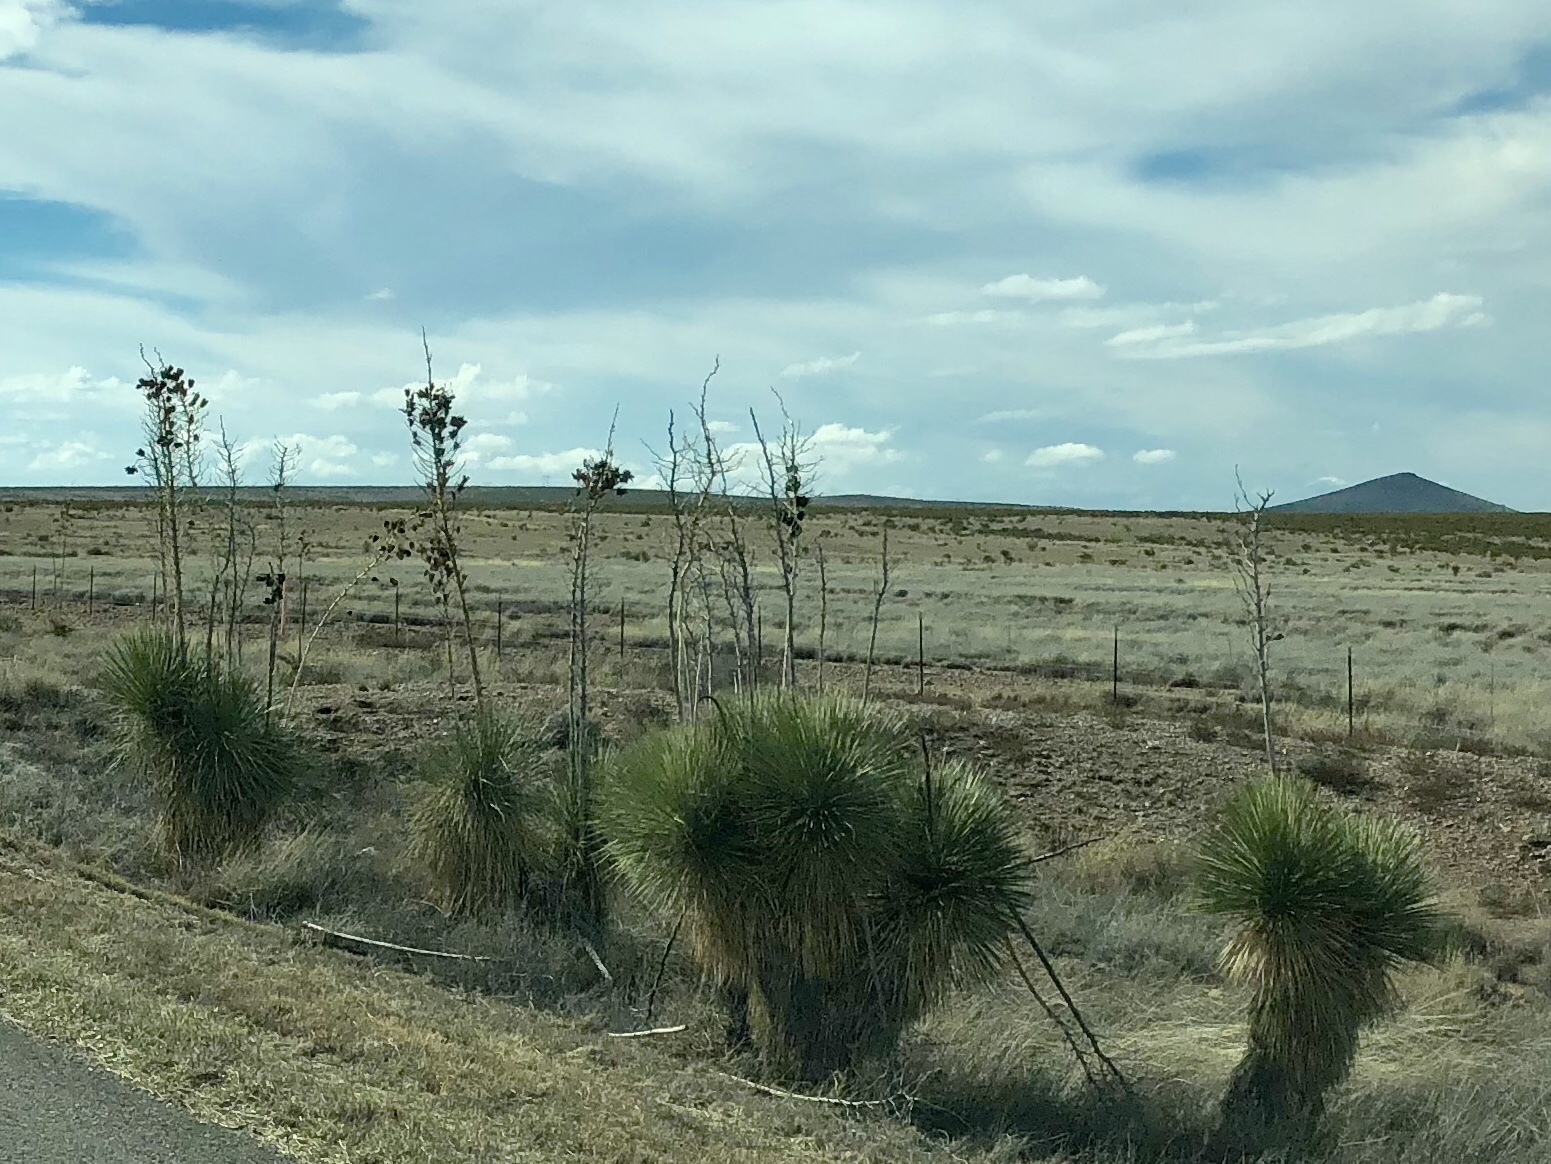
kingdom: Plantae
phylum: Tracheophyta
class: Liliopsida
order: Asparagales
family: Asparagaceae
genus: Yucca
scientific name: Yucca elata
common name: Palmella
